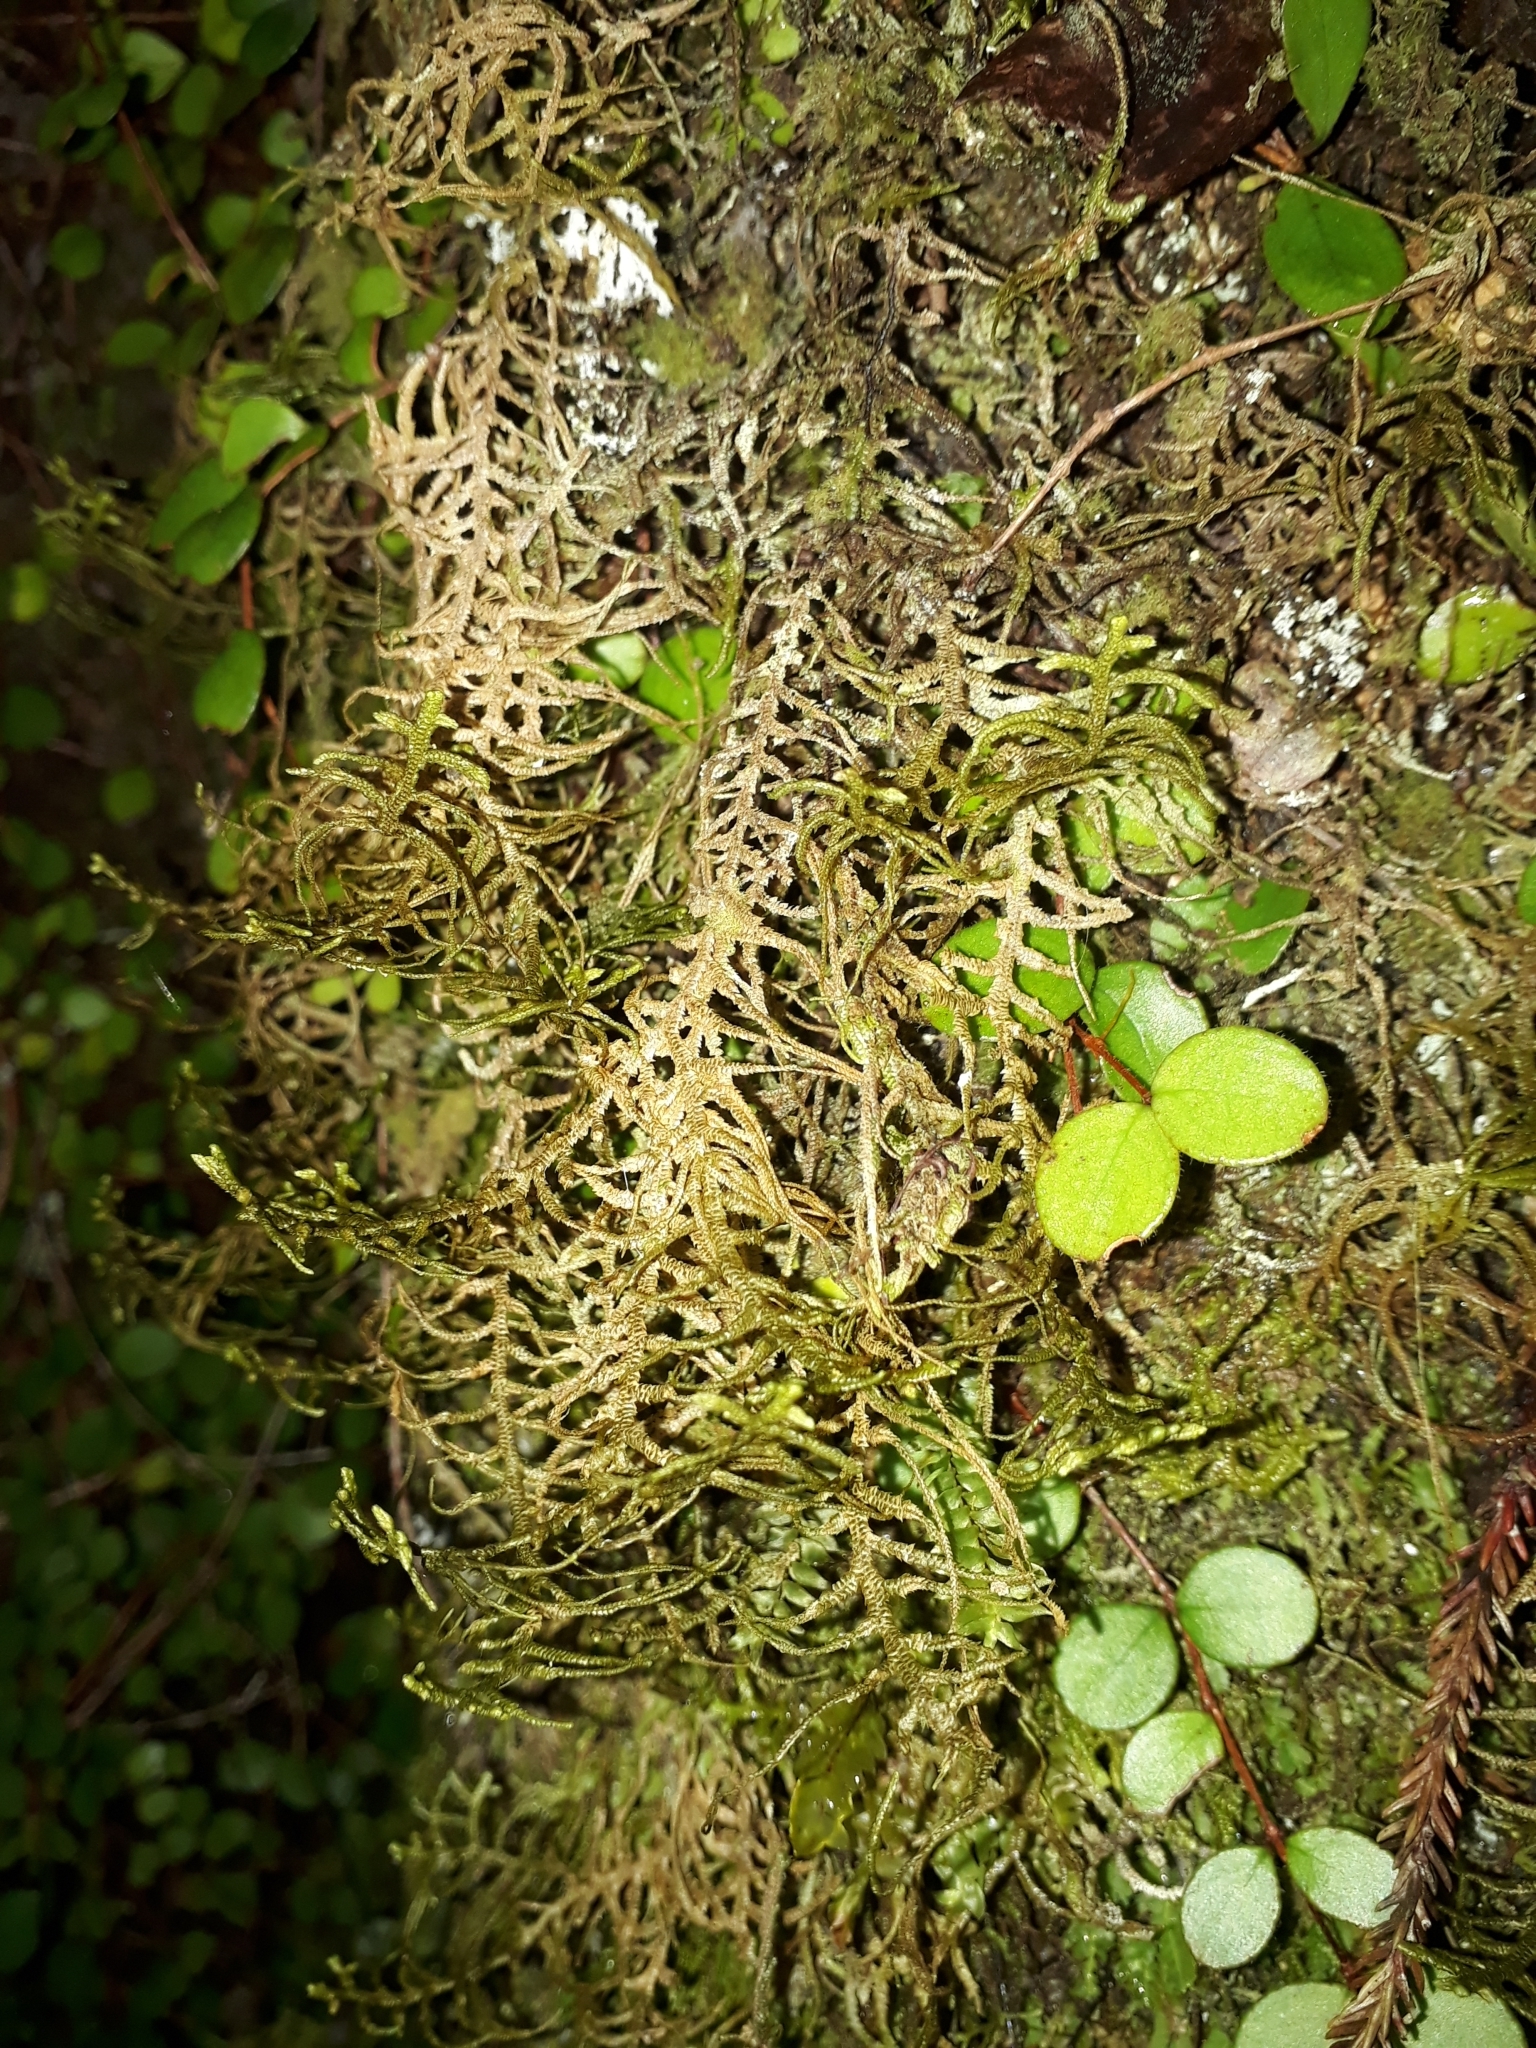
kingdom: Plantae
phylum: Marchantiophyta
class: Jungermanniopsida
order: Jungermanniales
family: Mastigophoraceae
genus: Dendromastigophora
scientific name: Dendromastigophora flagellifera
